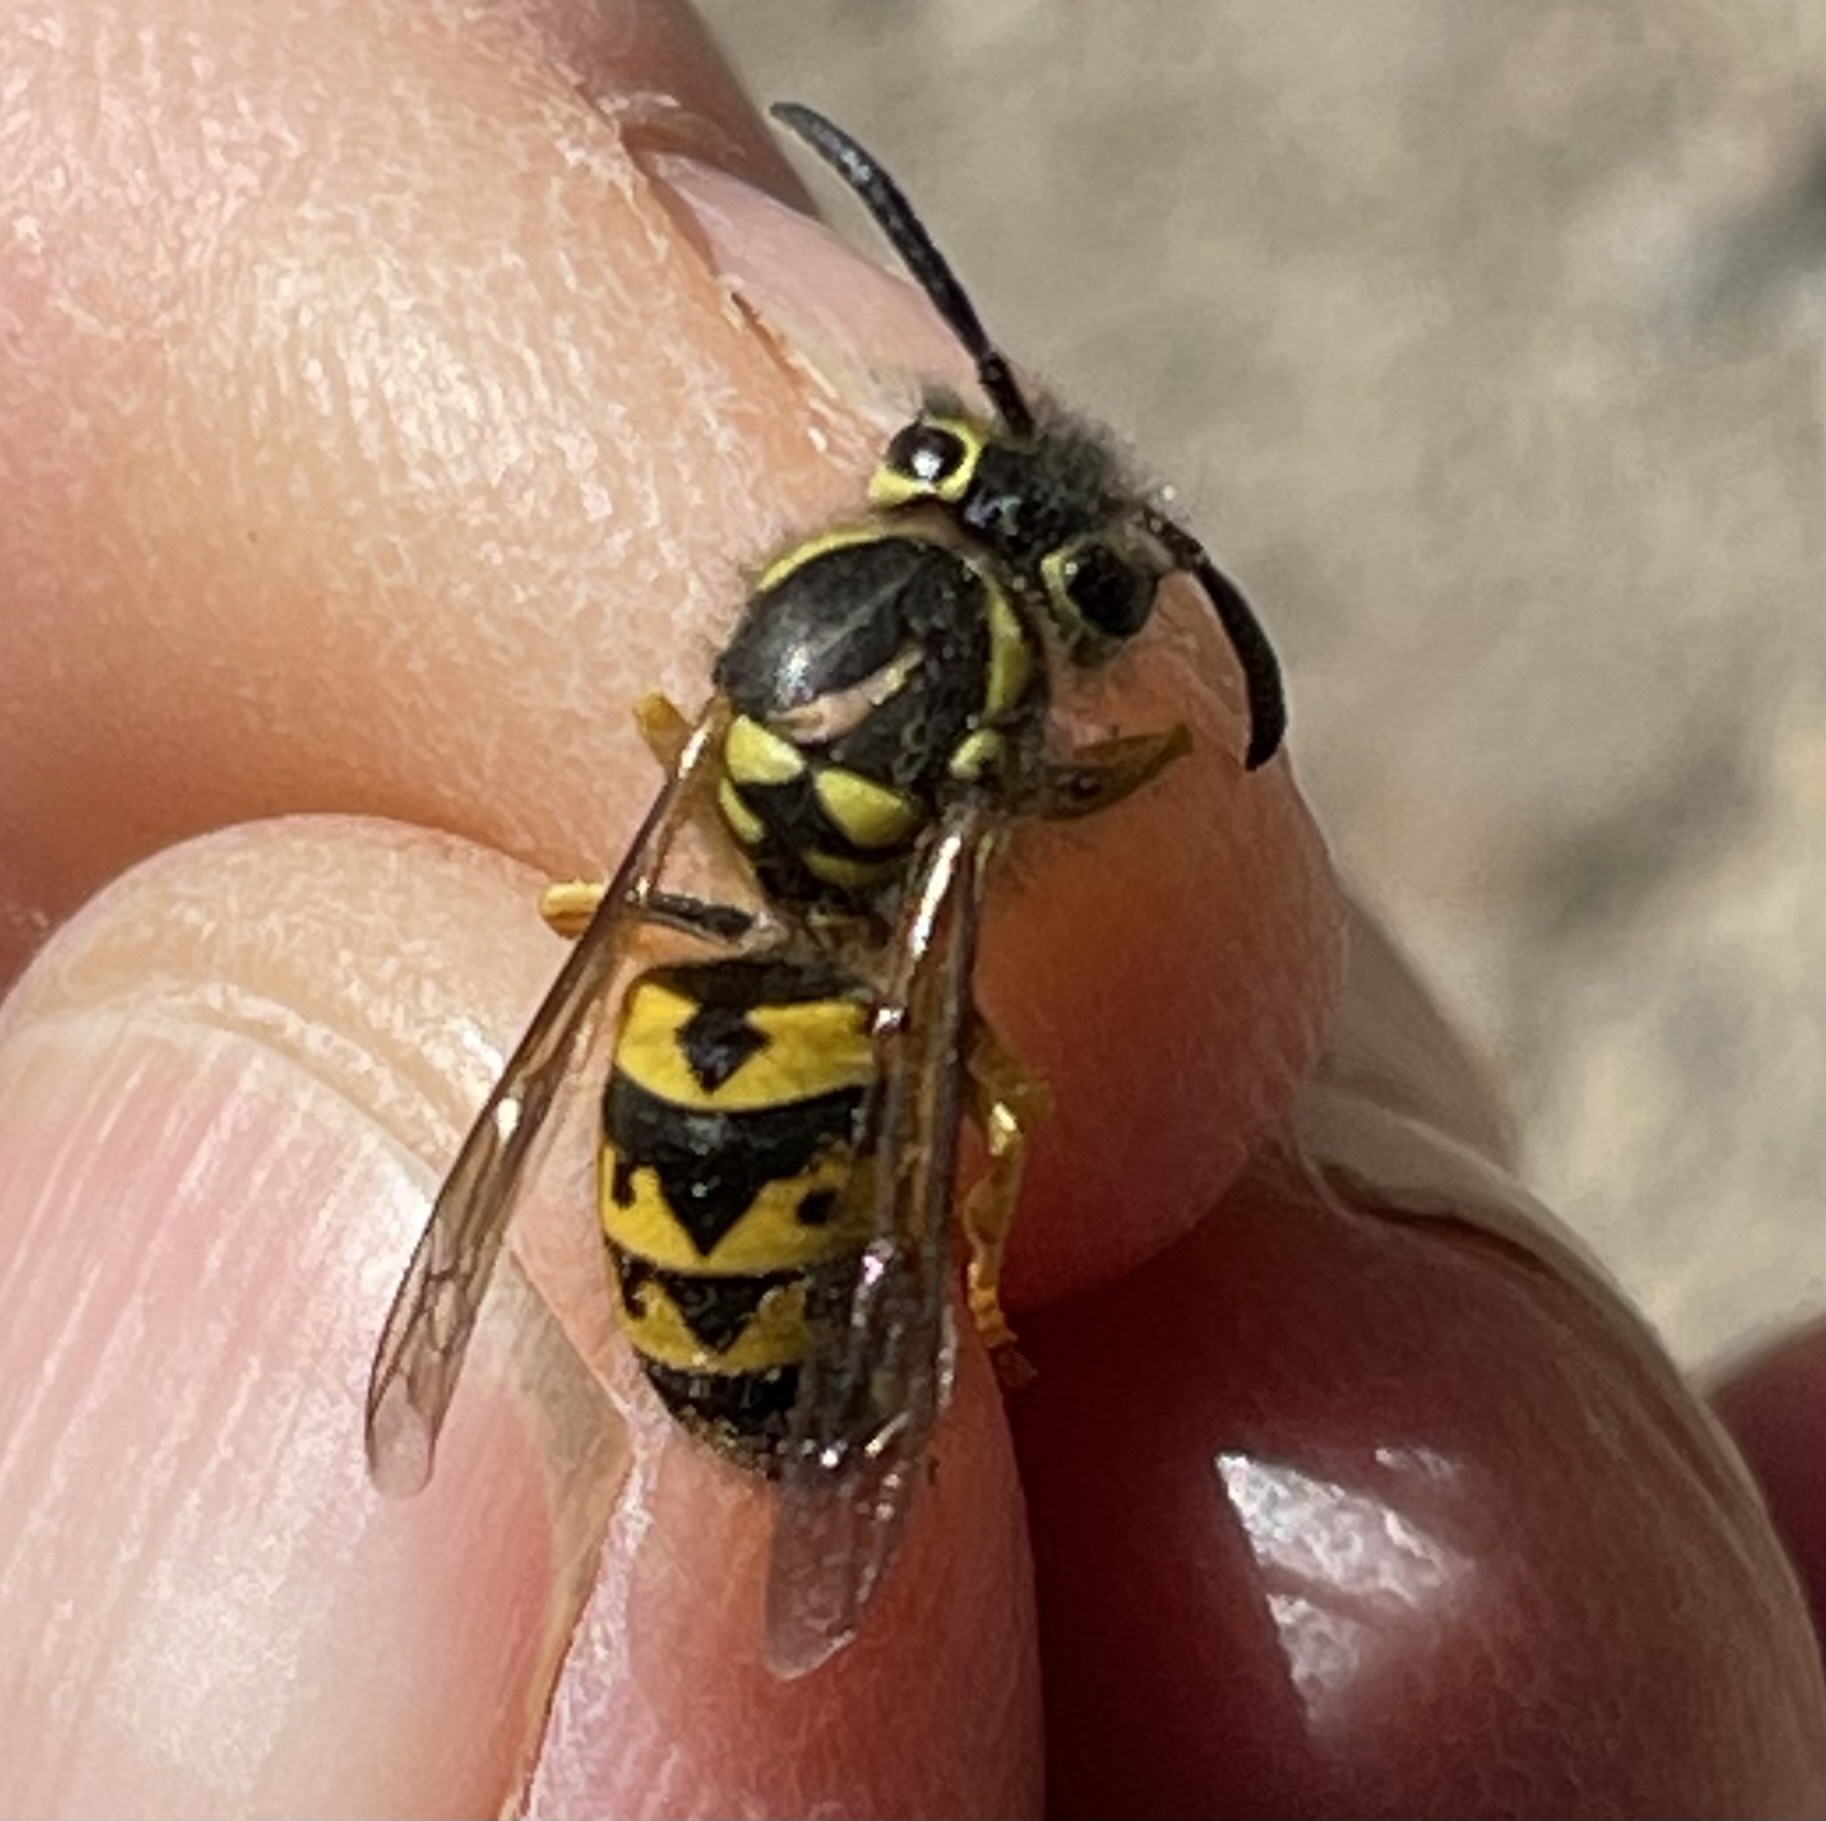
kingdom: Animalia
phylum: Arthropoda
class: Insecta
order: Hymenoptera
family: Vespidae
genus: Vespula
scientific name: Vespula pensylvanica
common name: Western yellowjacket
